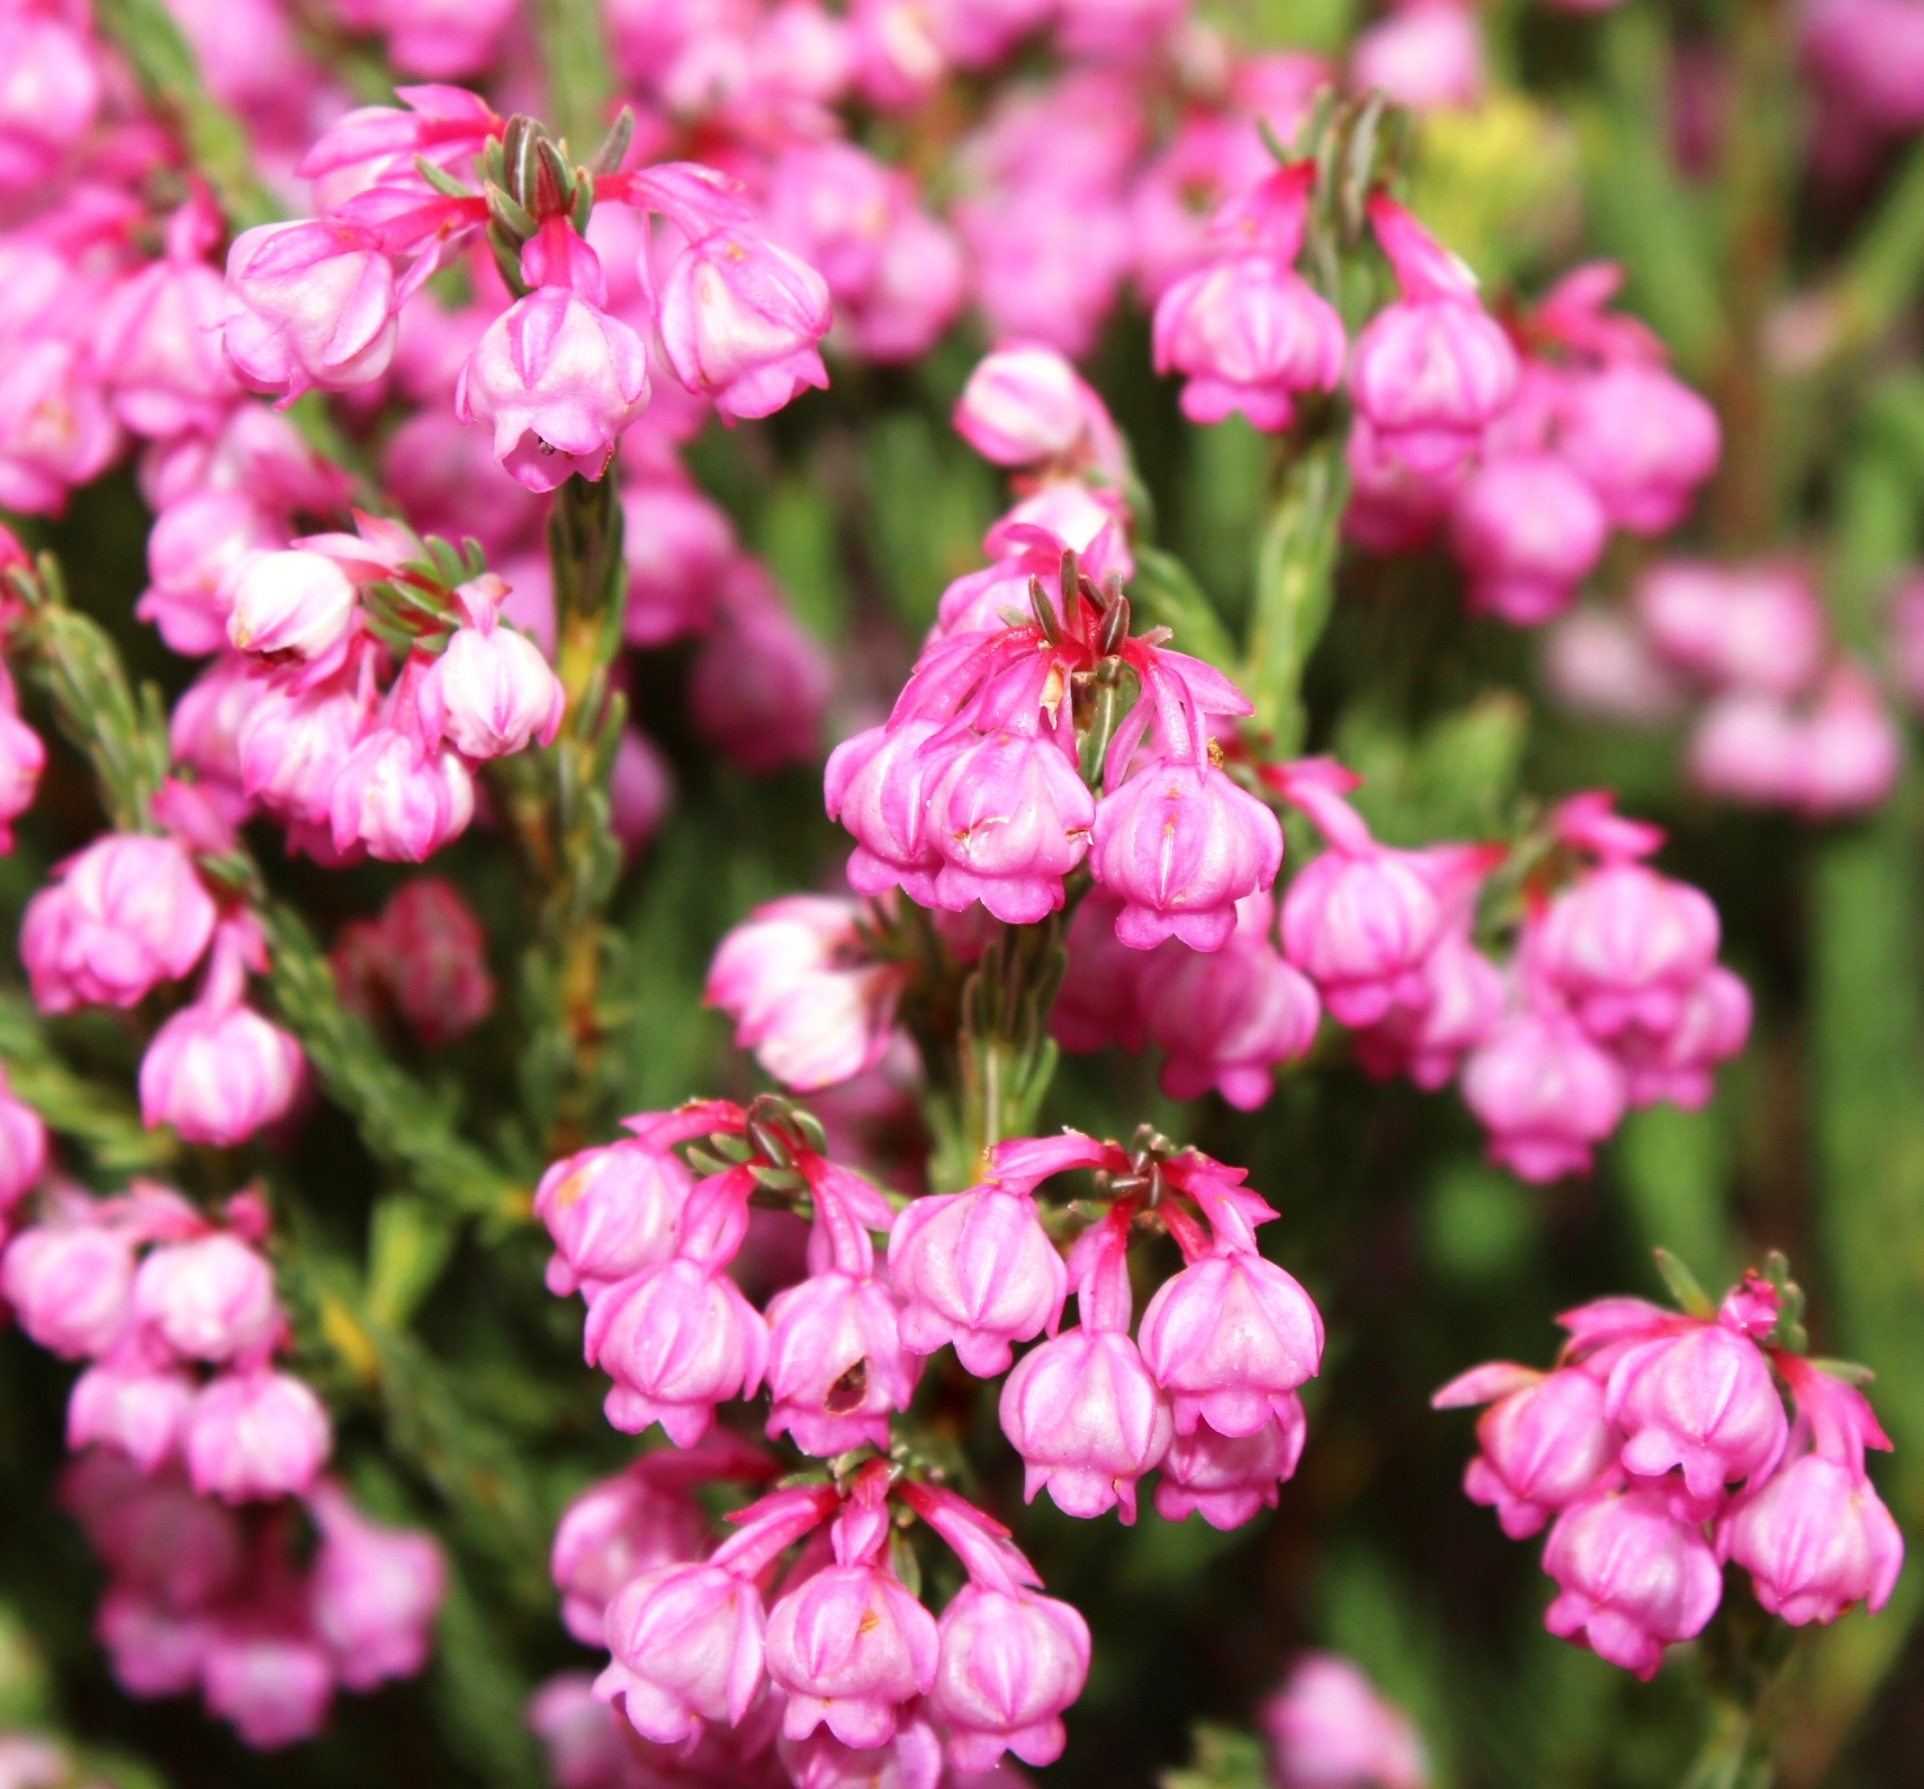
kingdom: Plantae
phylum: Tracheophyta
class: Magnoliopsida
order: Ericales
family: Ericaceae
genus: Erica
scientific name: Erica baccans
